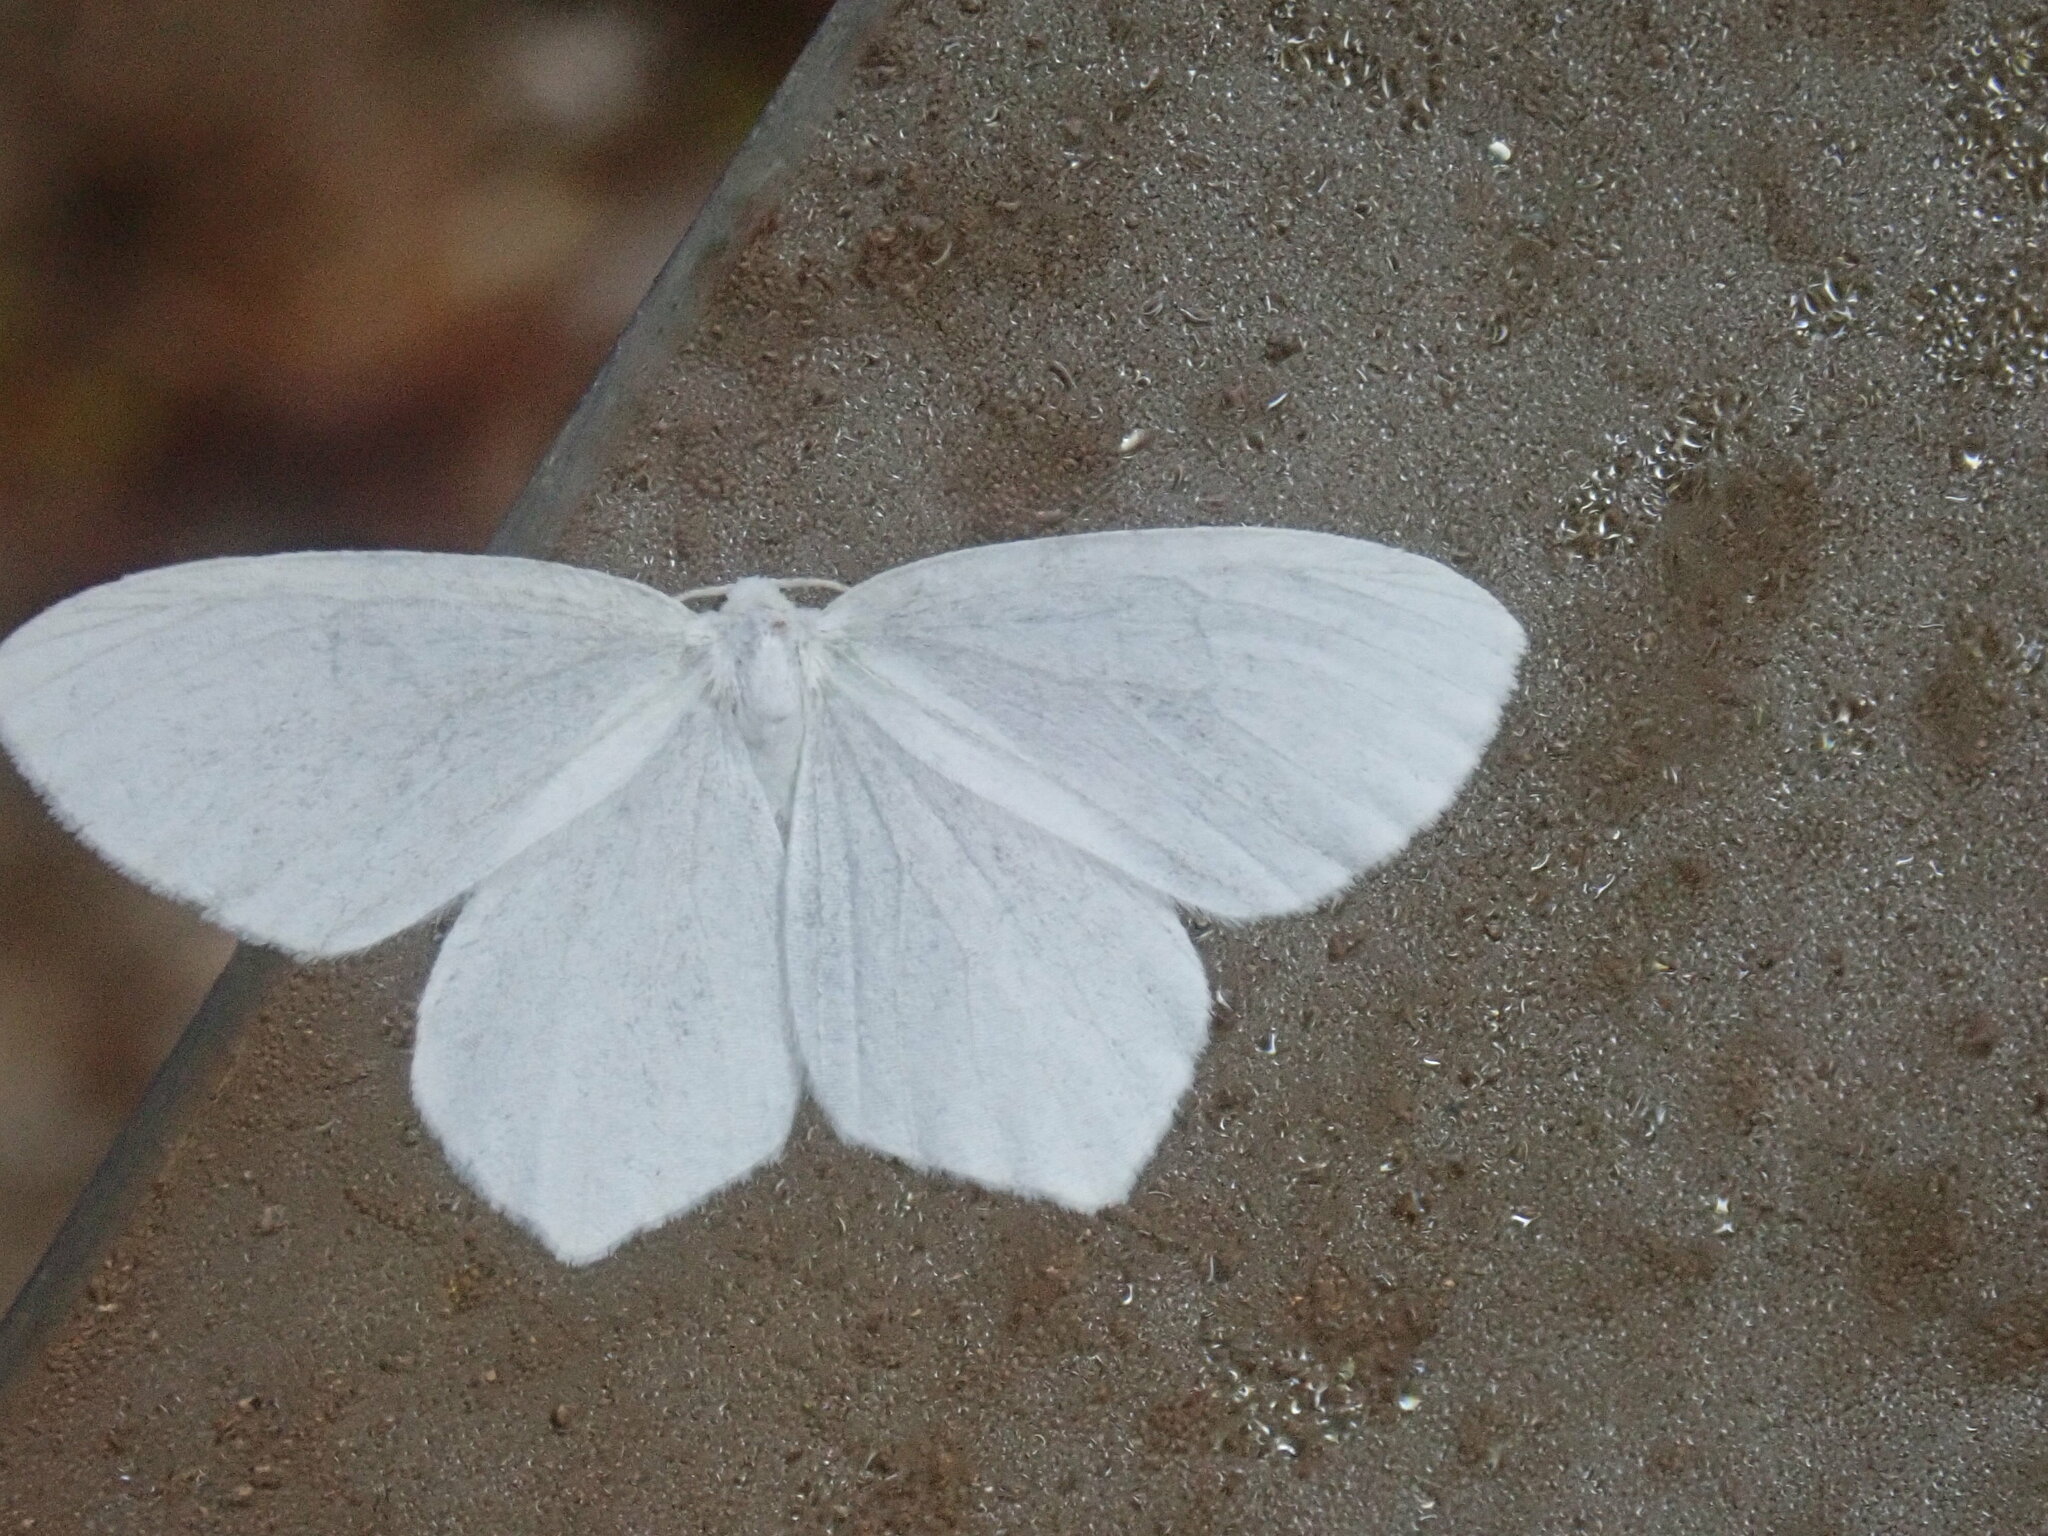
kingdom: Animalia
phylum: Arthropoda
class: Insecta
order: Lepidoptera
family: Geometridae
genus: Eugonobapta
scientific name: Eugonobapta nivosaria
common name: Snowy geometer
